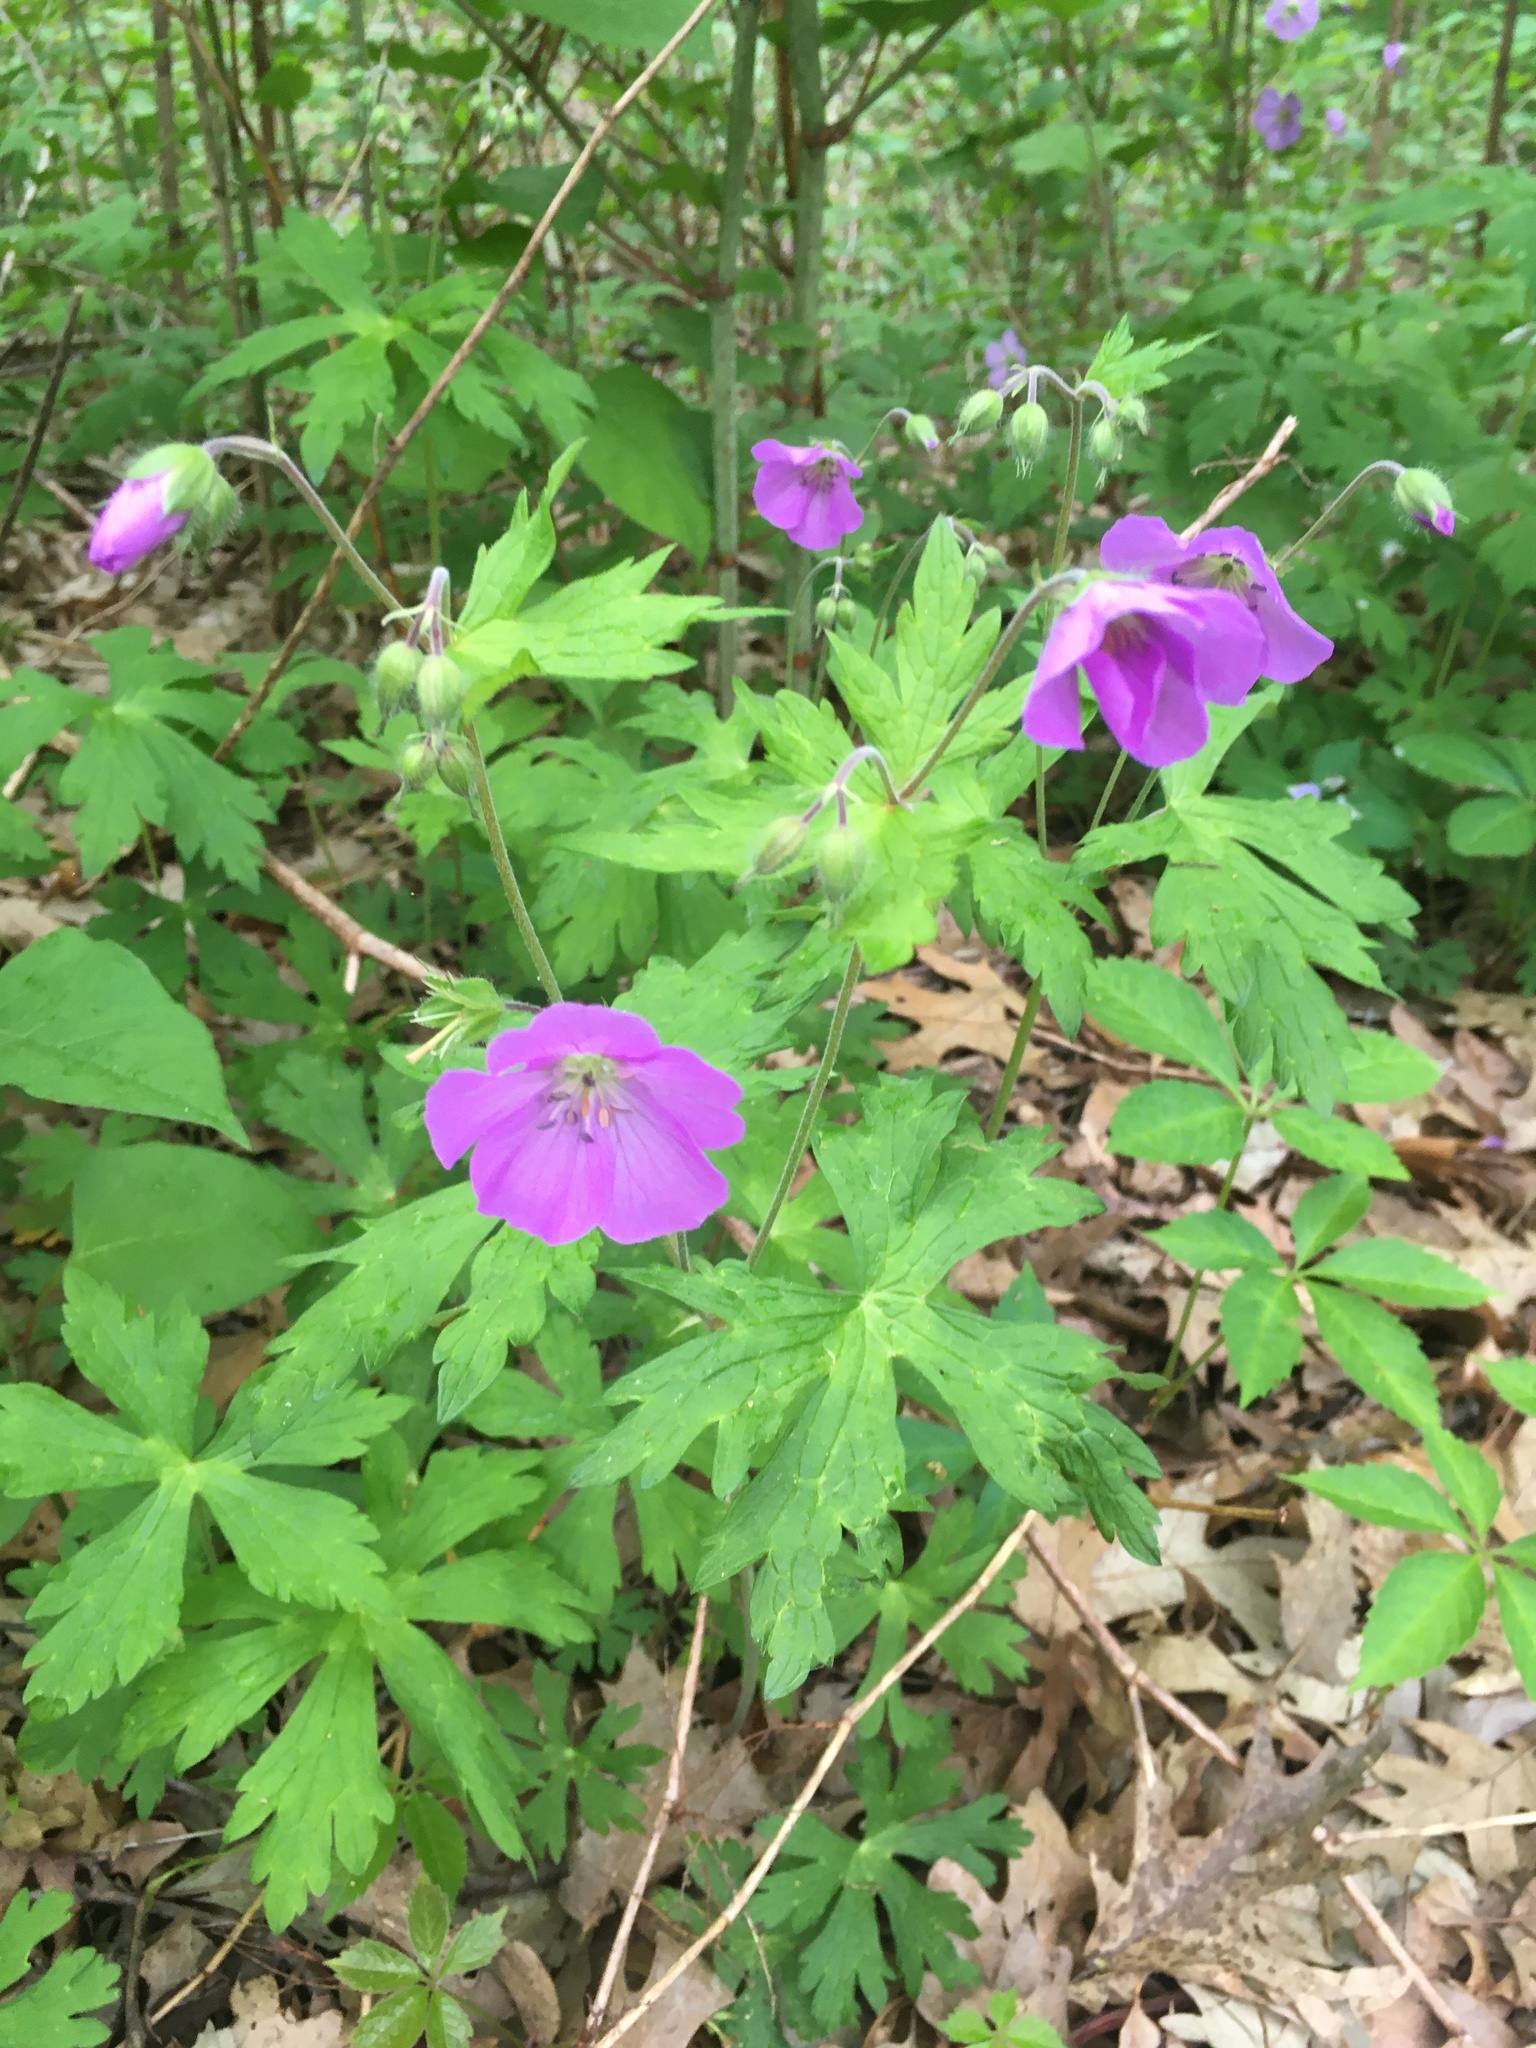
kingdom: Plantae
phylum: Tracheophyta
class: Magnoliopsida
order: Geraniales
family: Geraniaceae
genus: Geranium
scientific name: Geranium maculatum
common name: Spotted geranium
